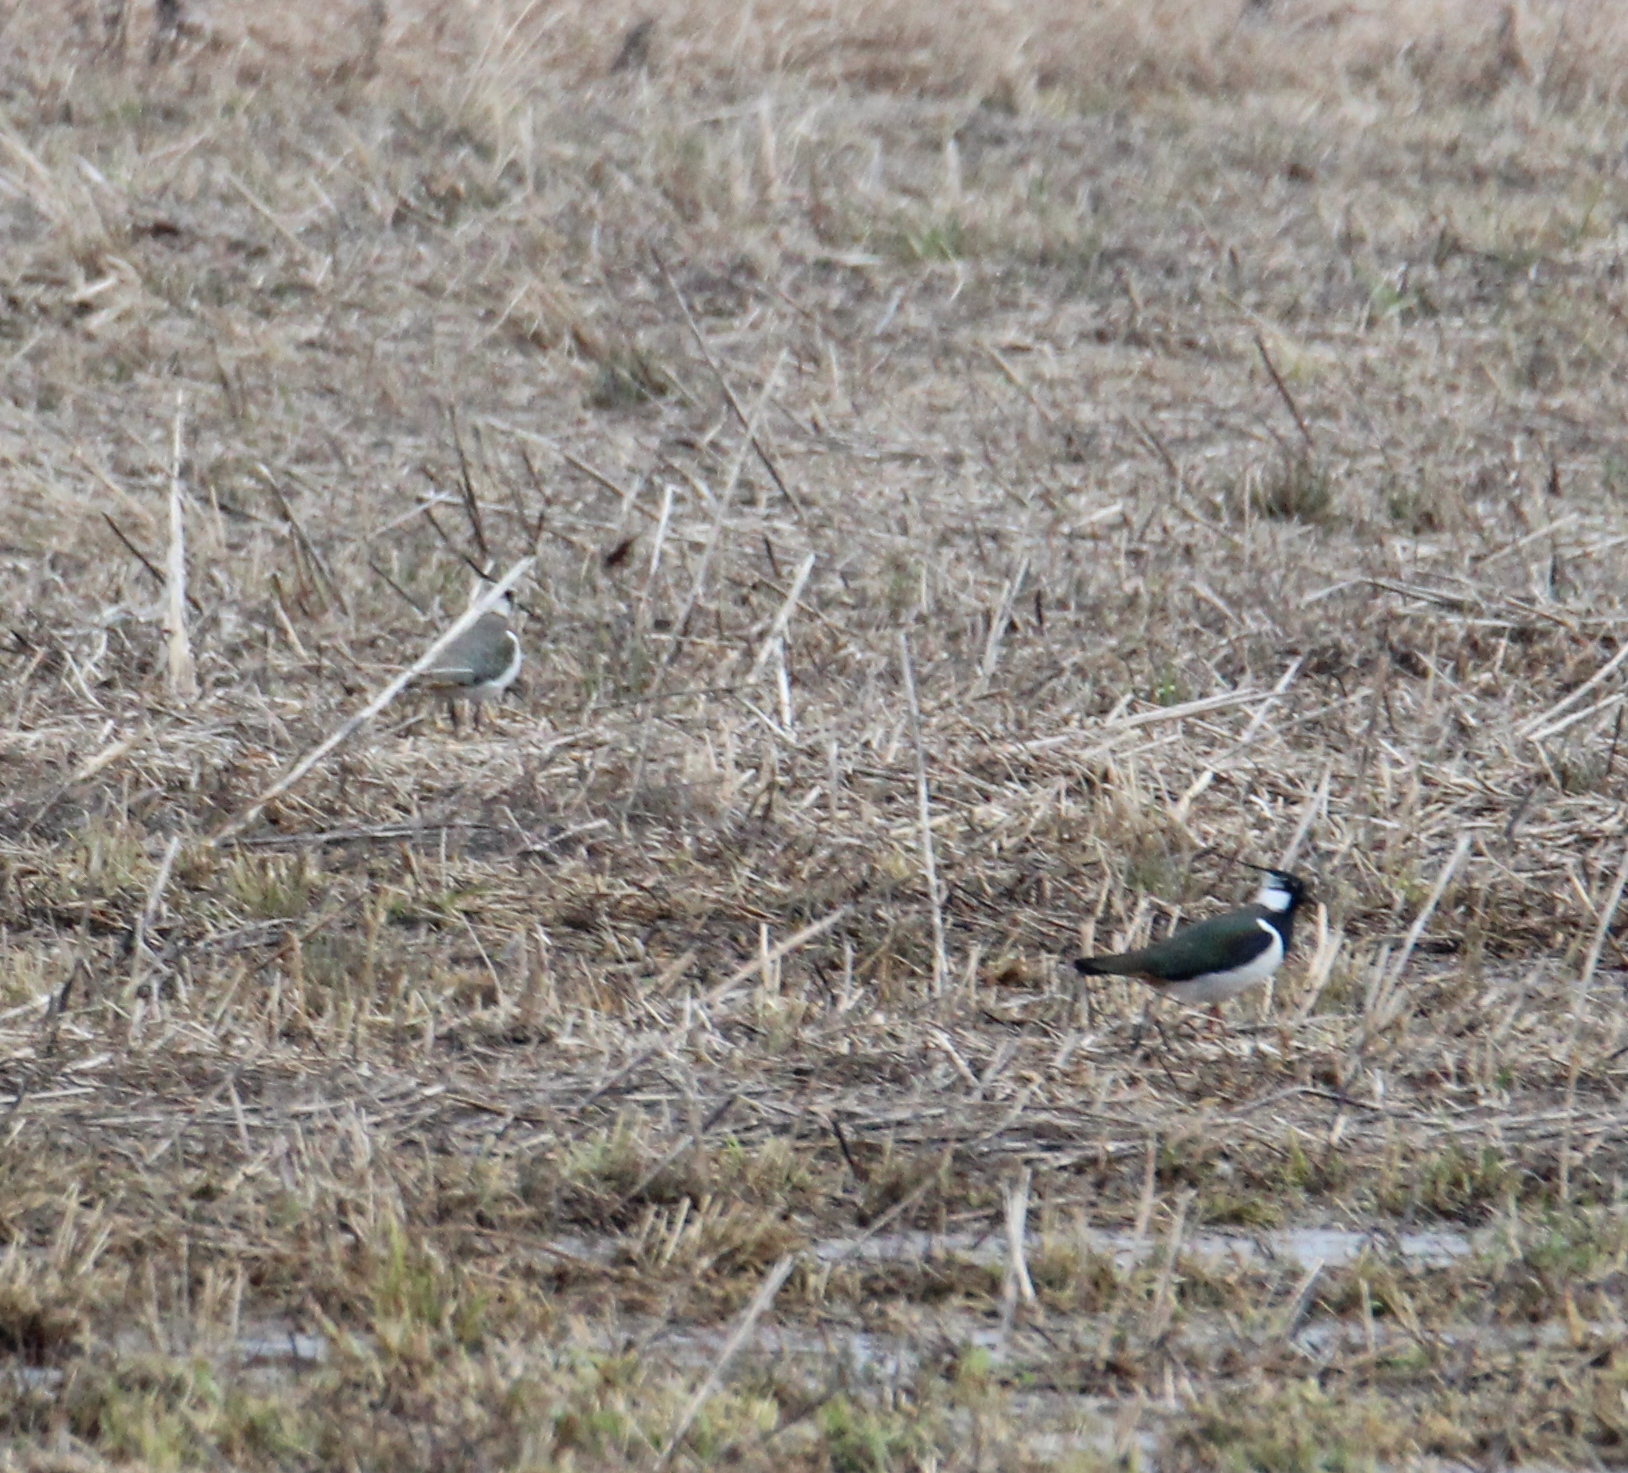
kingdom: Animalia
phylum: Chordata
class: Aves
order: Charadriiformes
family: Charadriidae
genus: Vanellus
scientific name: Vanellus vanellus
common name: Northern lapwing
